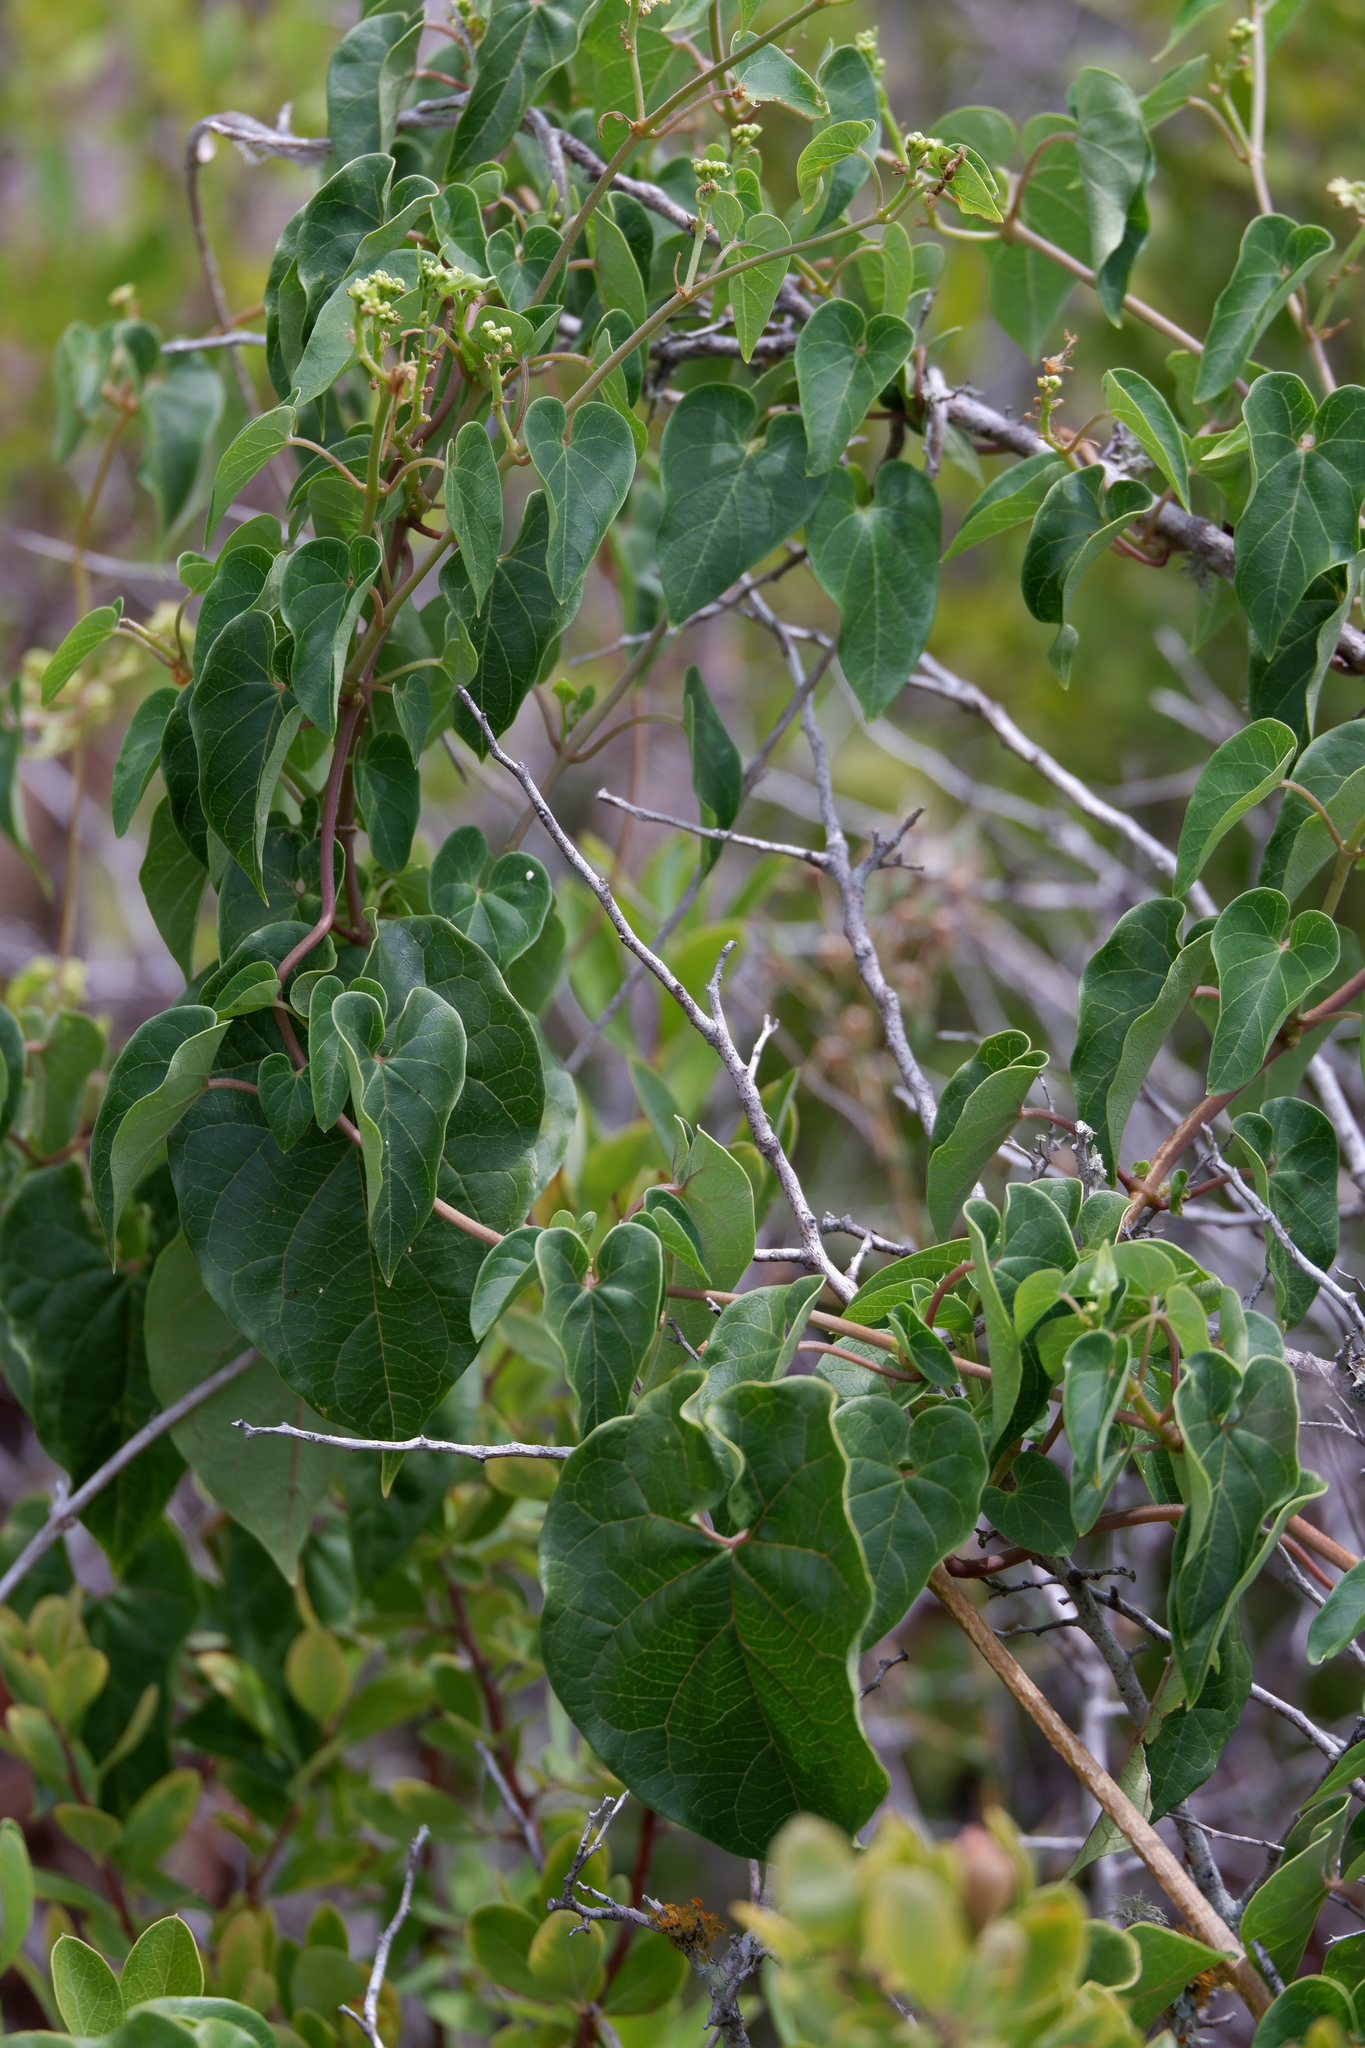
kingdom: Plantae
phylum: Tracheophyta
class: Magnoliopsida
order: Gentianales
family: Apocynaceae
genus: Cynanchum
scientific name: Cynanchum racemosum
